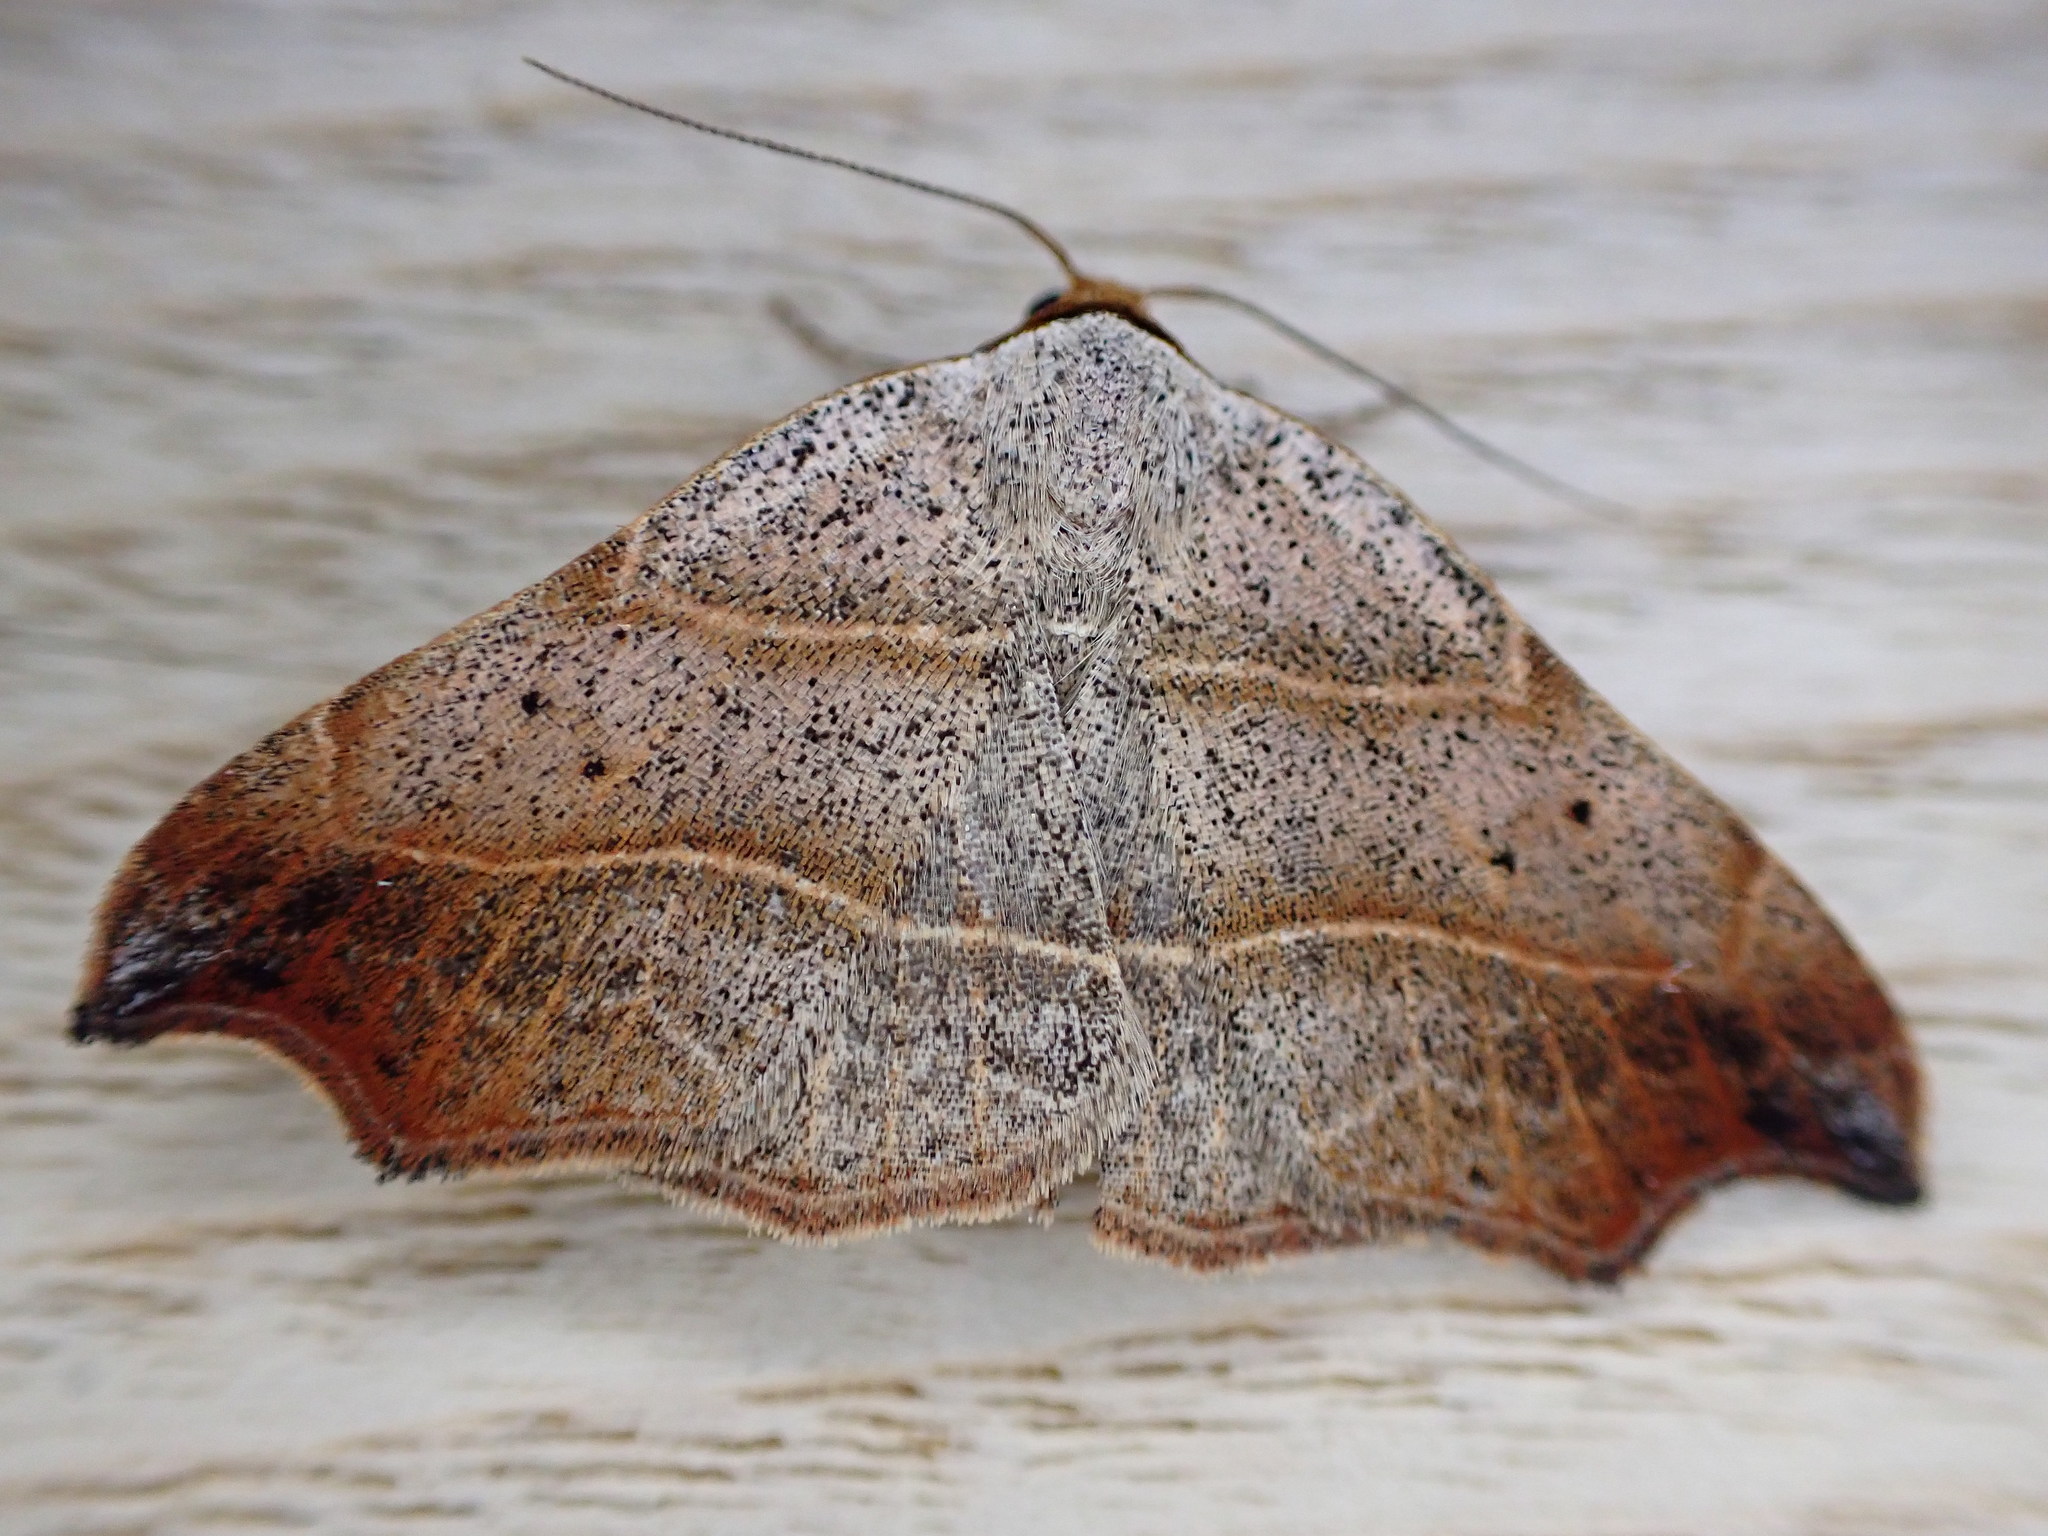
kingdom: Animalia
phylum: Arthropoda
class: Insecta
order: Lepidoptera
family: Erebidae
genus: Laspeyria
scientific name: Laspeyria flexula
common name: Beautiful hook-tip
